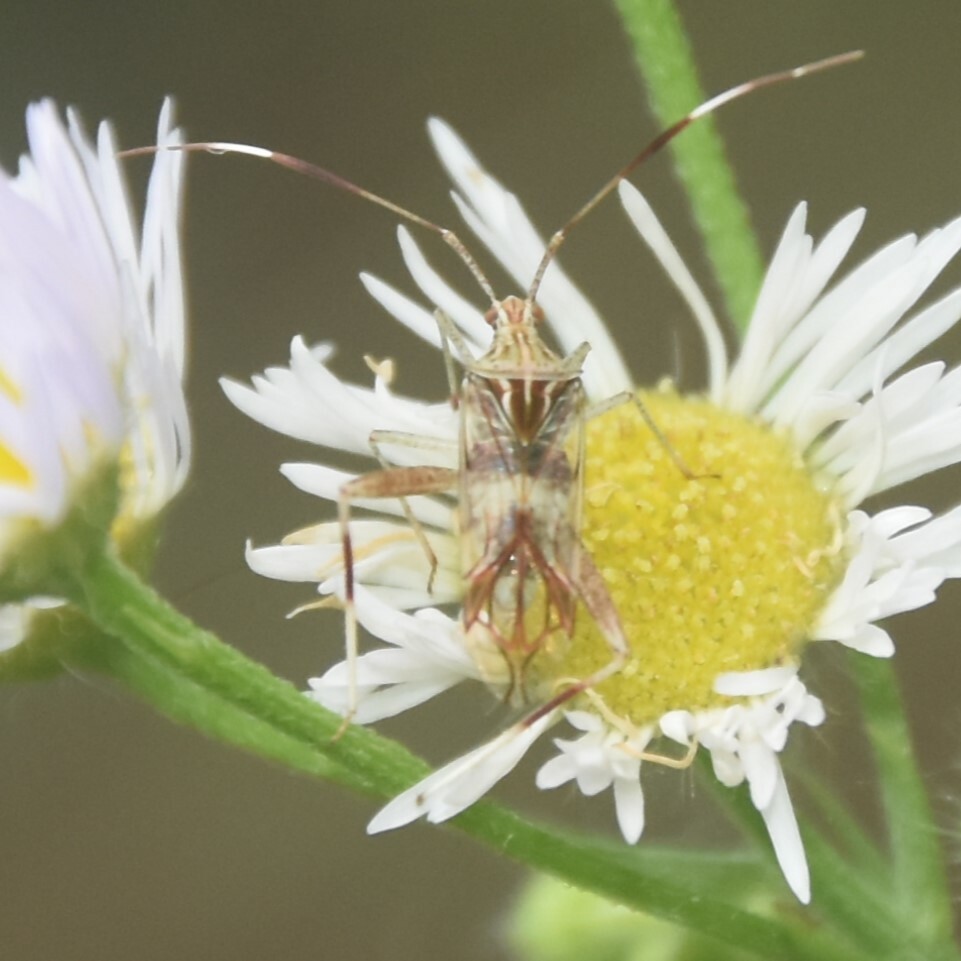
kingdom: Animalia
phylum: Arthropoda
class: Insecta
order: Hemiptera
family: Miridae
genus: Isabel
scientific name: Isabel ravana
